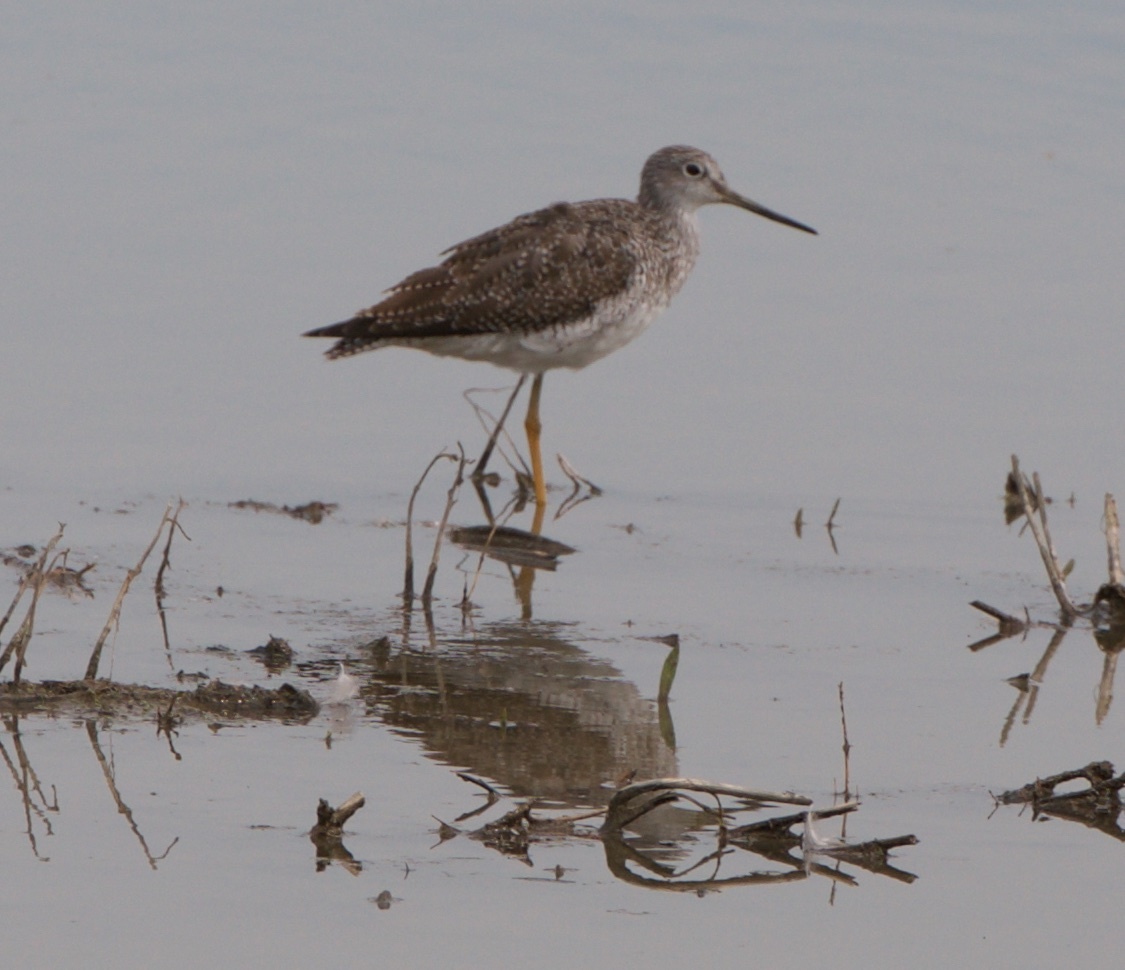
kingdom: Animalia
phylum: Chordata
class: Aves
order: Charadriiformes
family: Scolopacidae
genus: Tringa
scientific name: Tringa melanoleuca
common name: Greater yellowlegs
